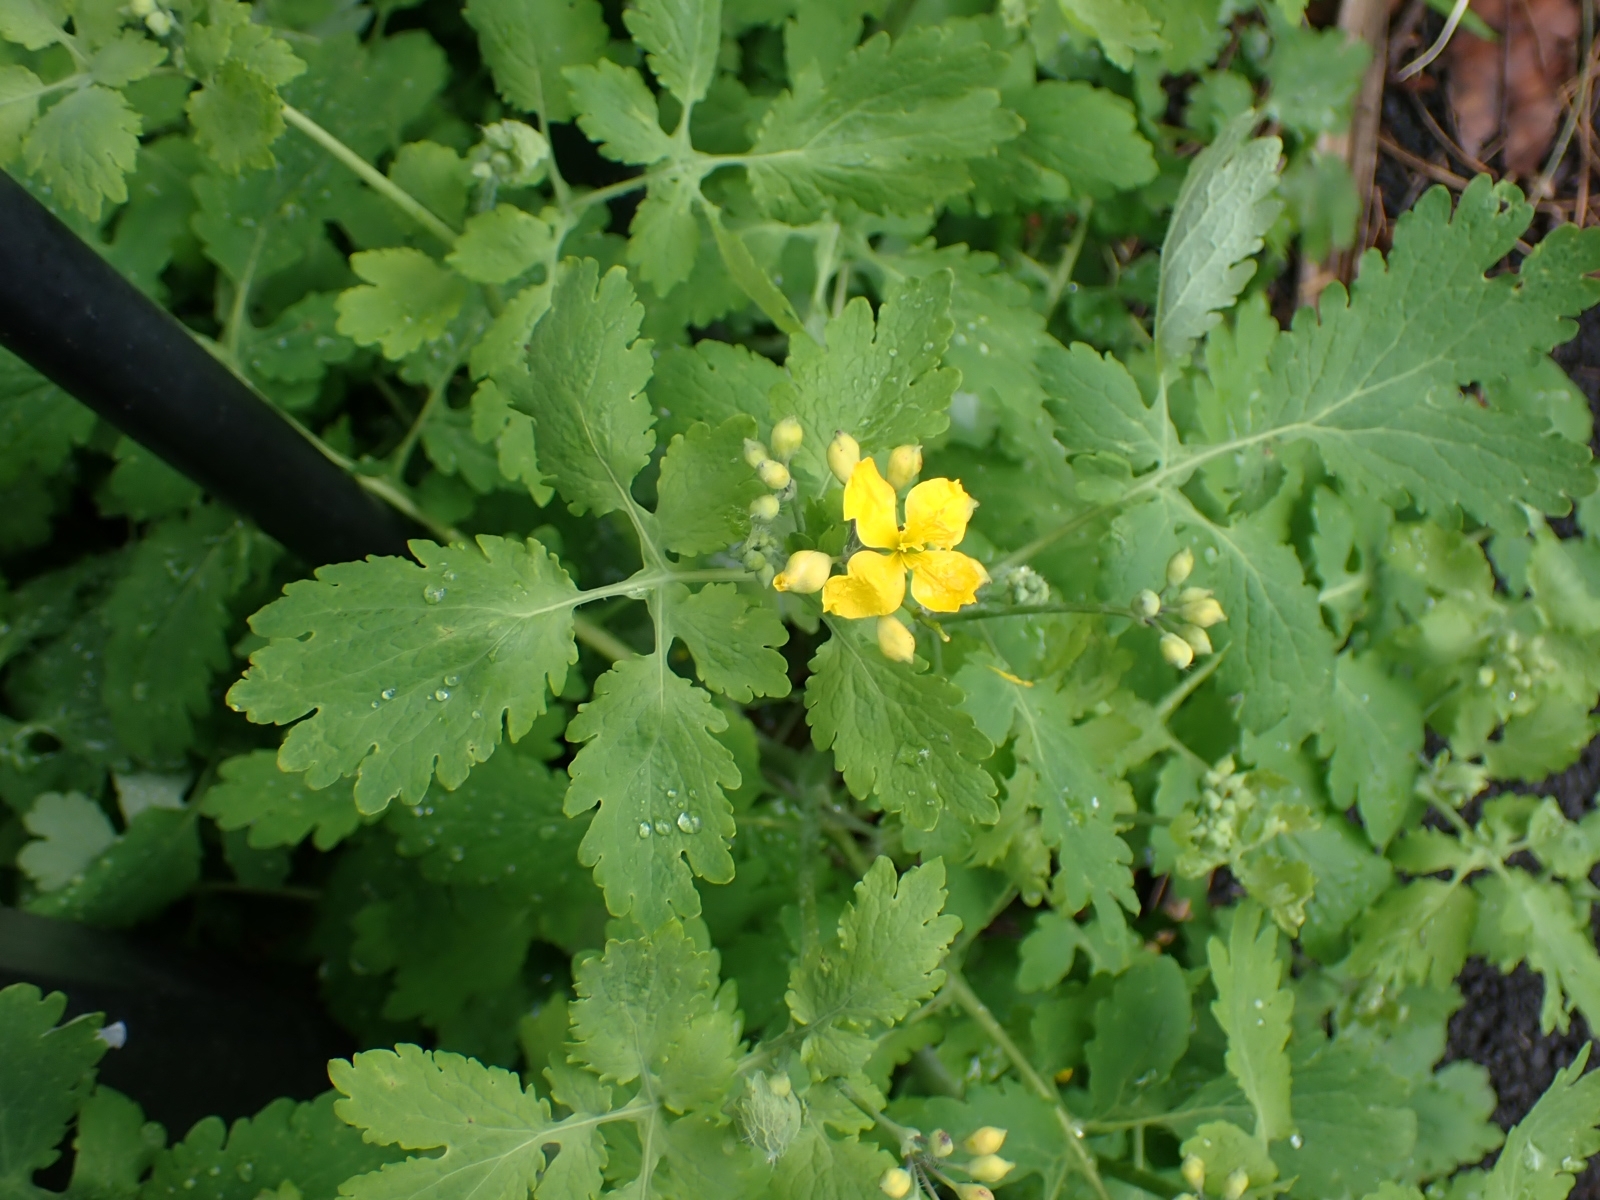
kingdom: Plantae
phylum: Tracheophyta
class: Magnoliopsida
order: Ranunculales
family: Papaveraceae
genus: Chelidonium
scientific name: Chelidonium majus
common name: Greater celandine
